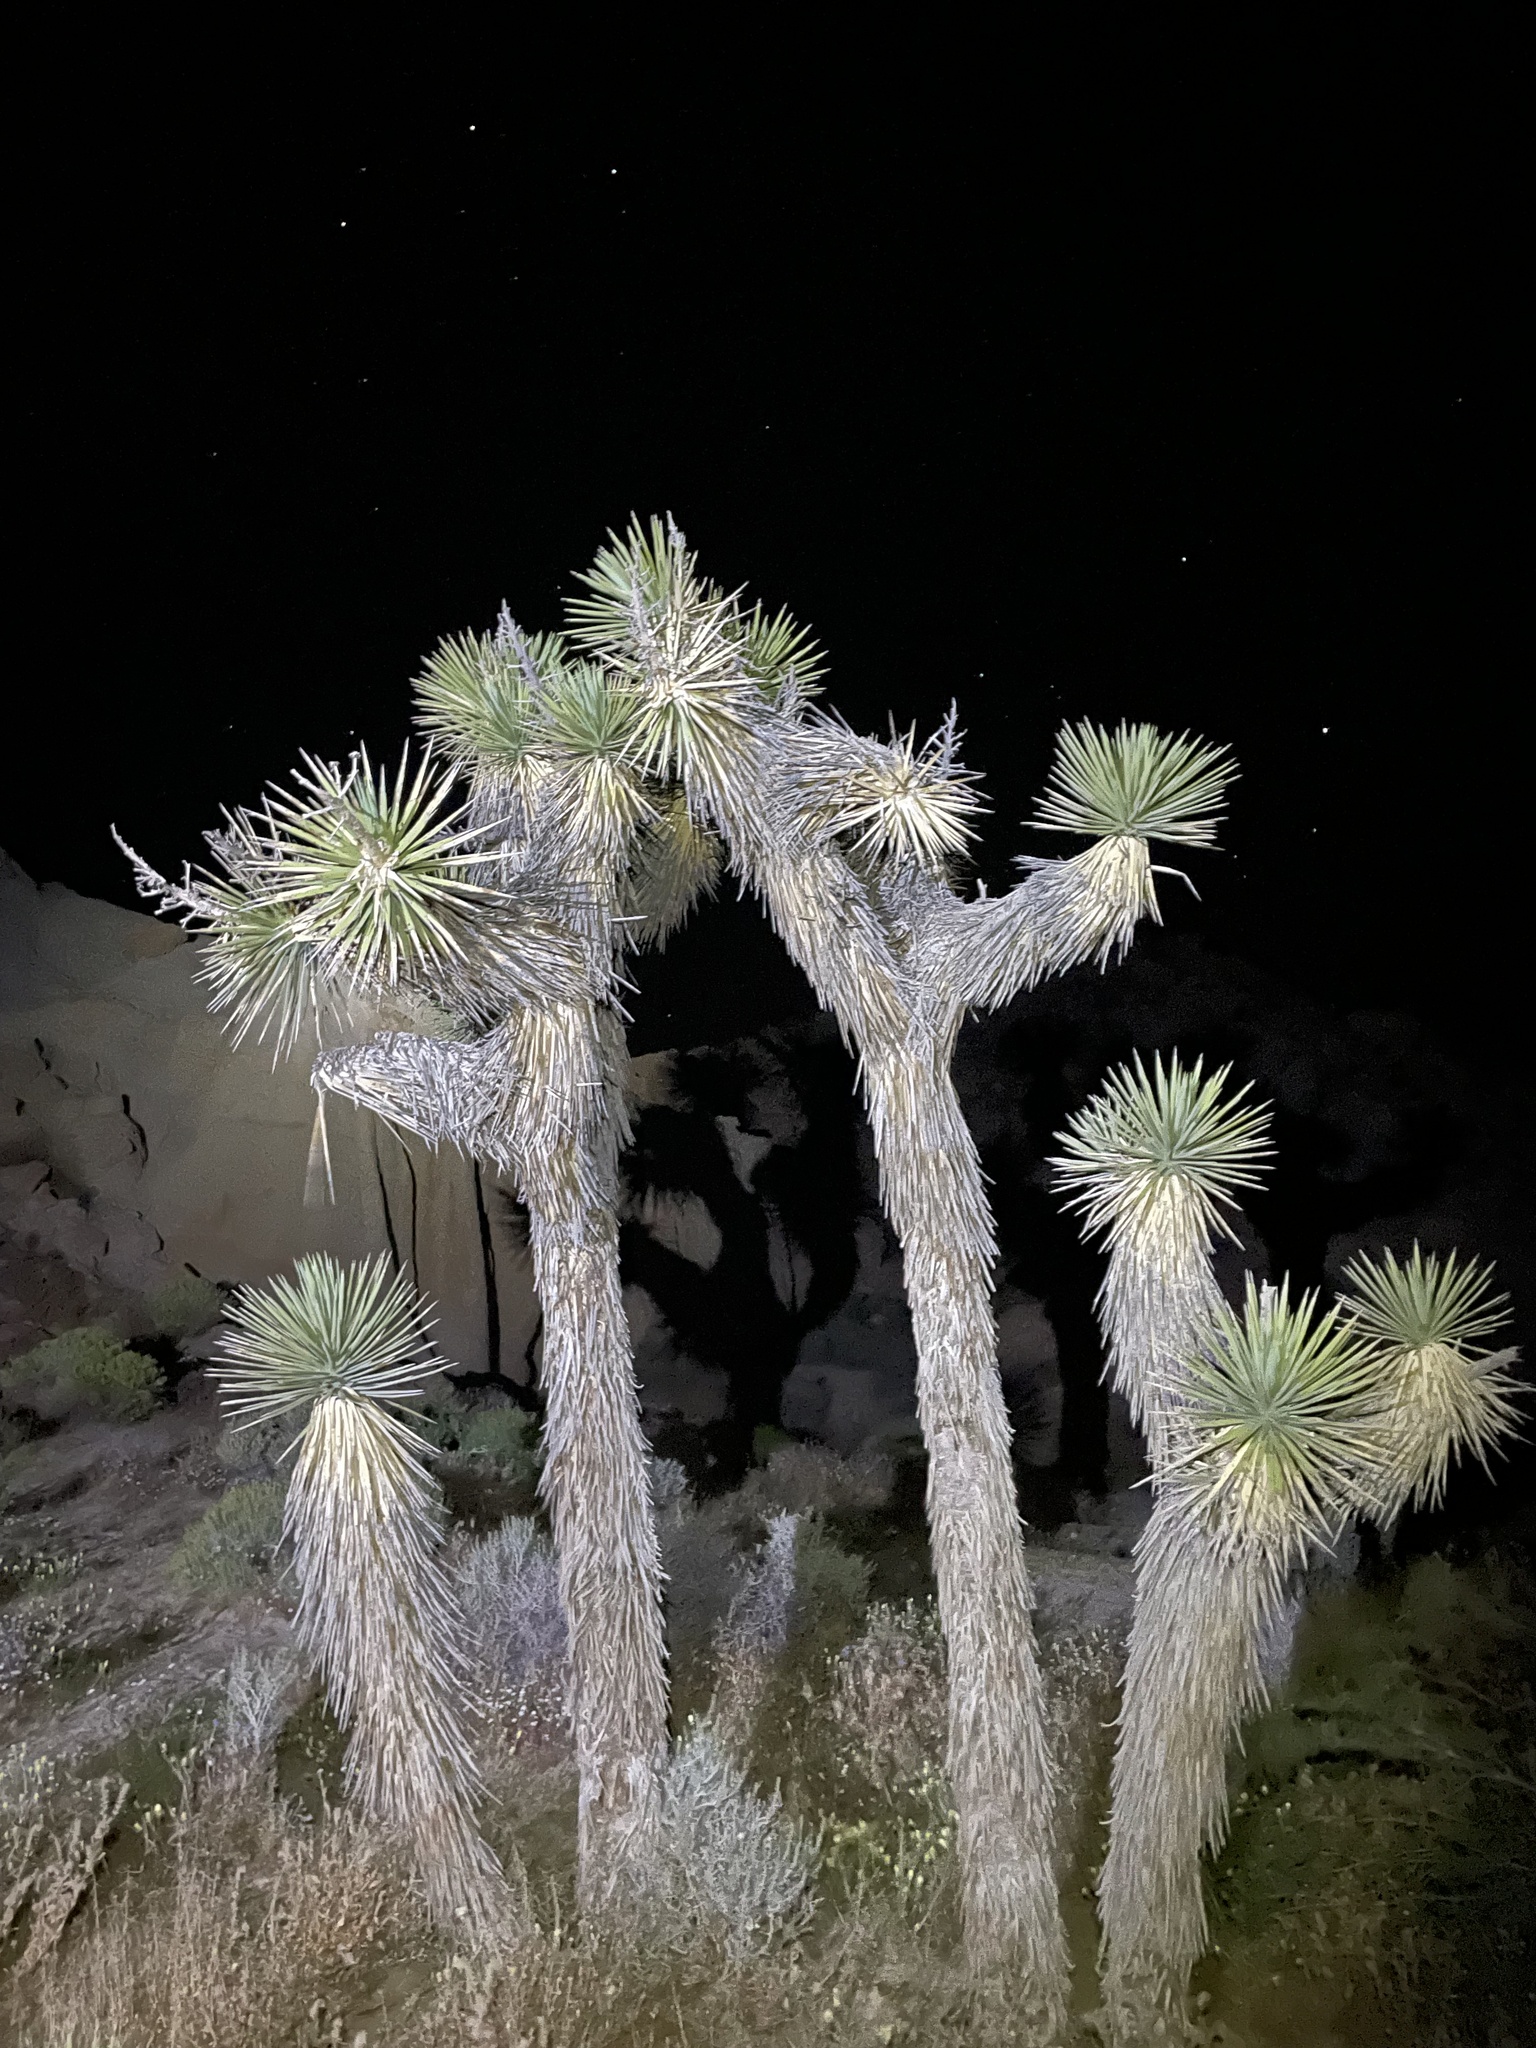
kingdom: Plantae
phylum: Tracheophyta
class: Liliopsida
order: Asparagales
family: Asparagaceae
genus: Yucca
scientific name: Yucca brevifolia
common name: Joshua tree
